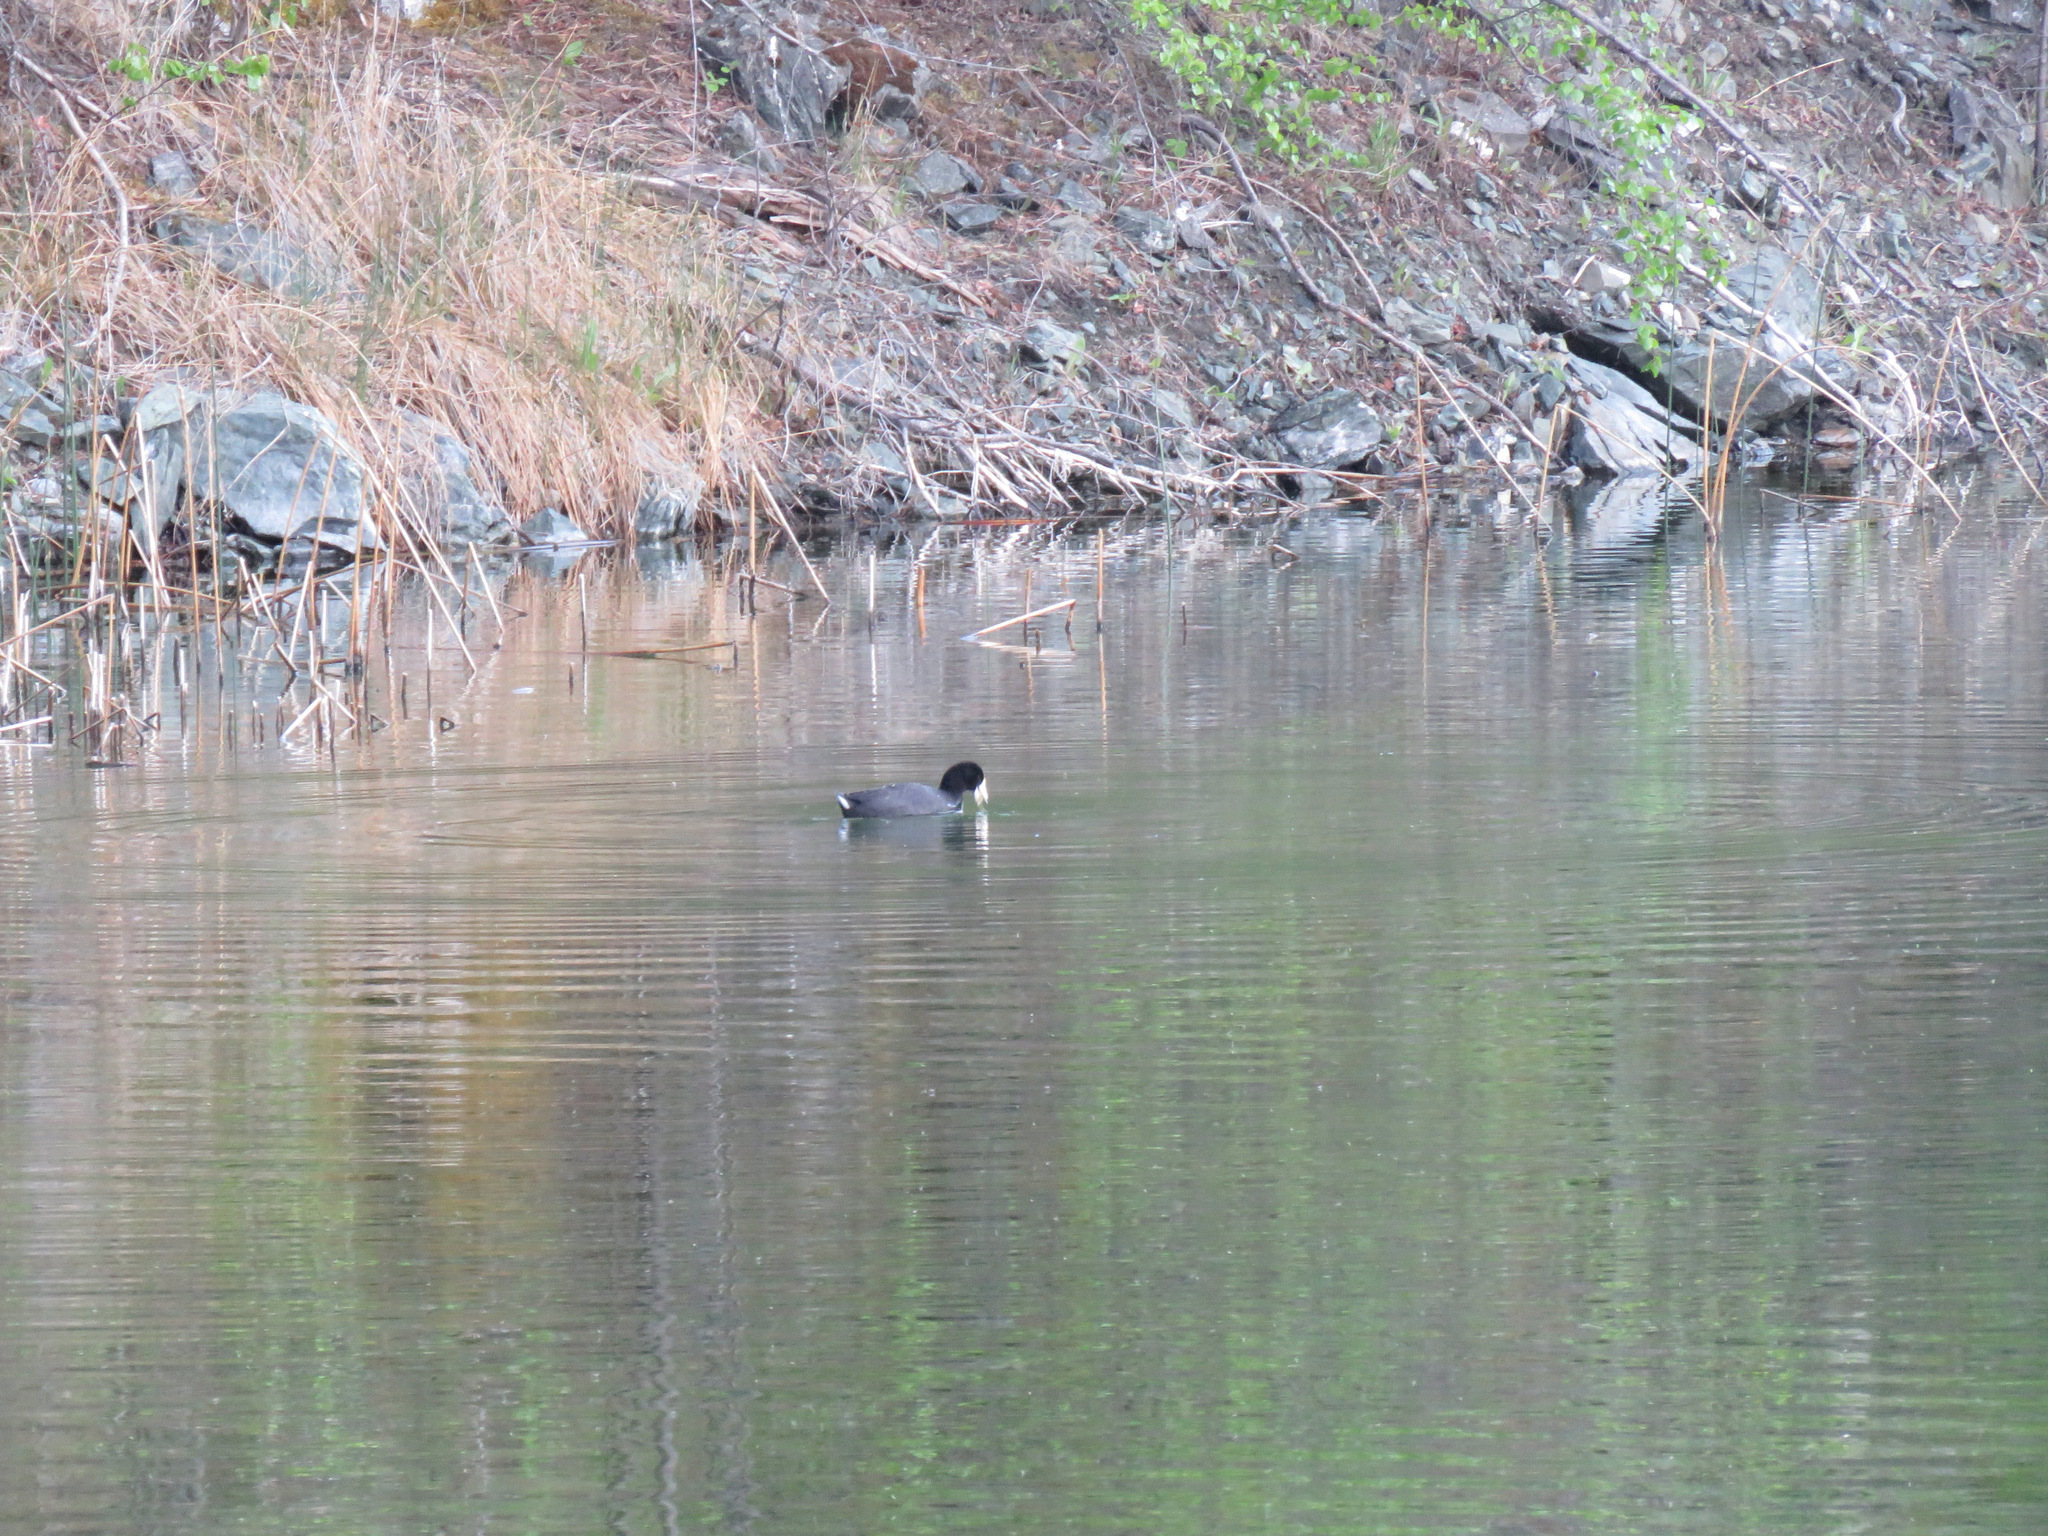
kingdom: Animalia
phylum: Chordata
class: Aves
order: Gruiformes
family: Rallidae
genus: Fulica
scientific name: Fulica americana
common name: American coot
